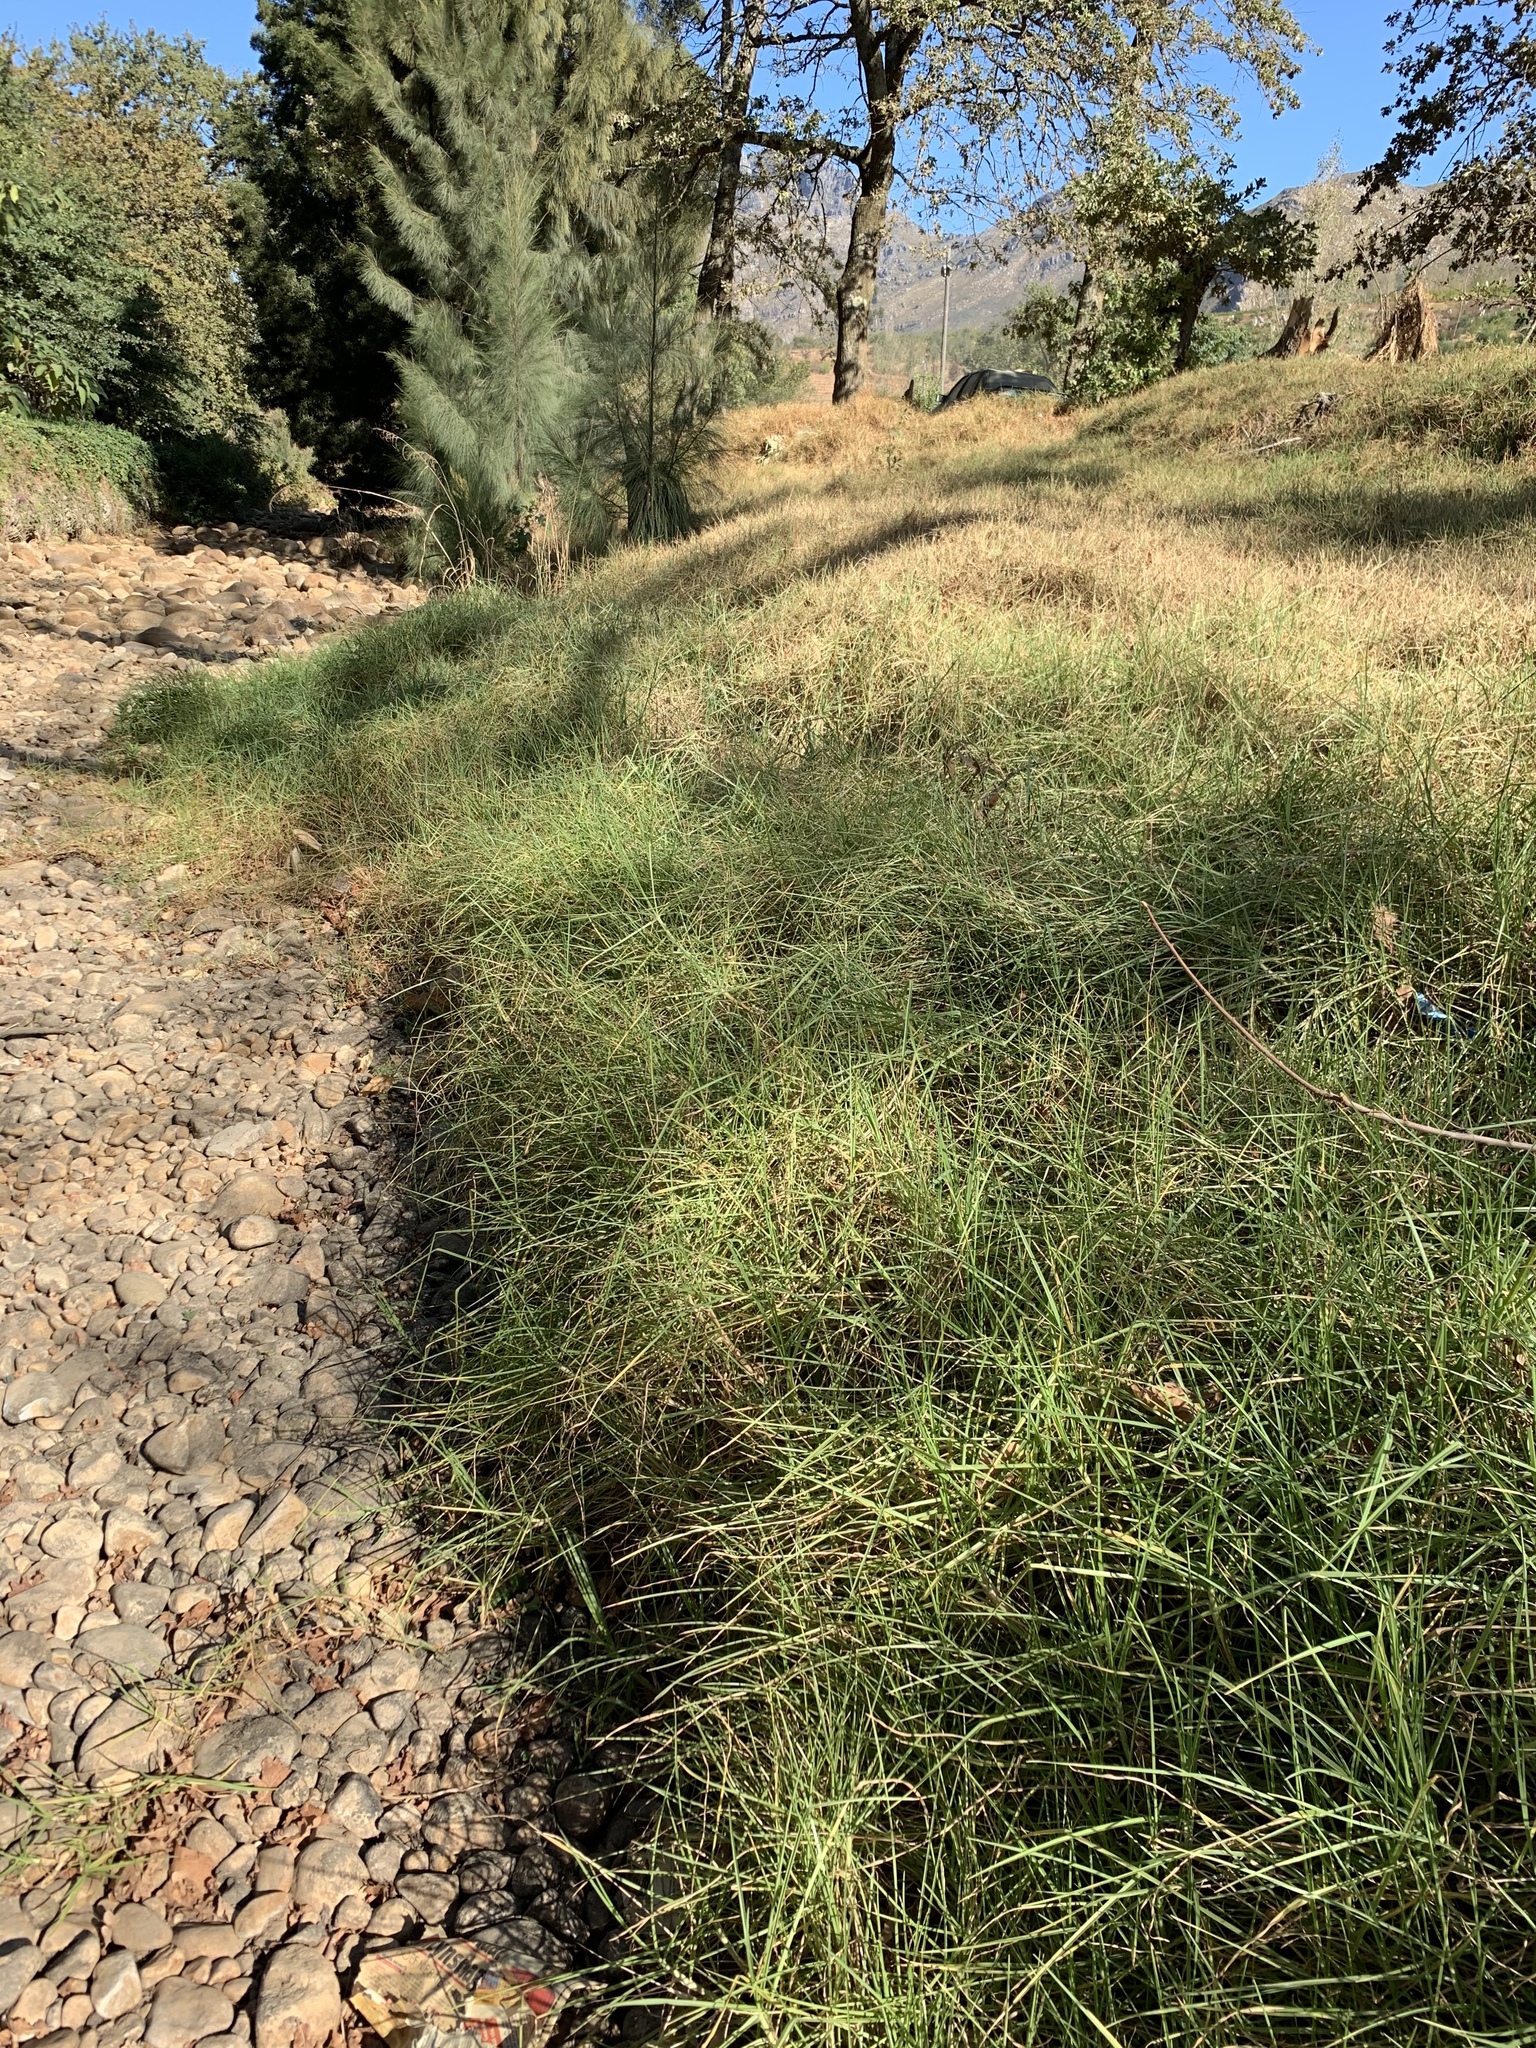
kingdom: Plantae
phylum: Tracheophyta
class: Liliopsida
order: Poales
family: Poaceae
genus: Cenchrus
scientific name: Cenchrus clandestinus
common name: Kikuyugrass
